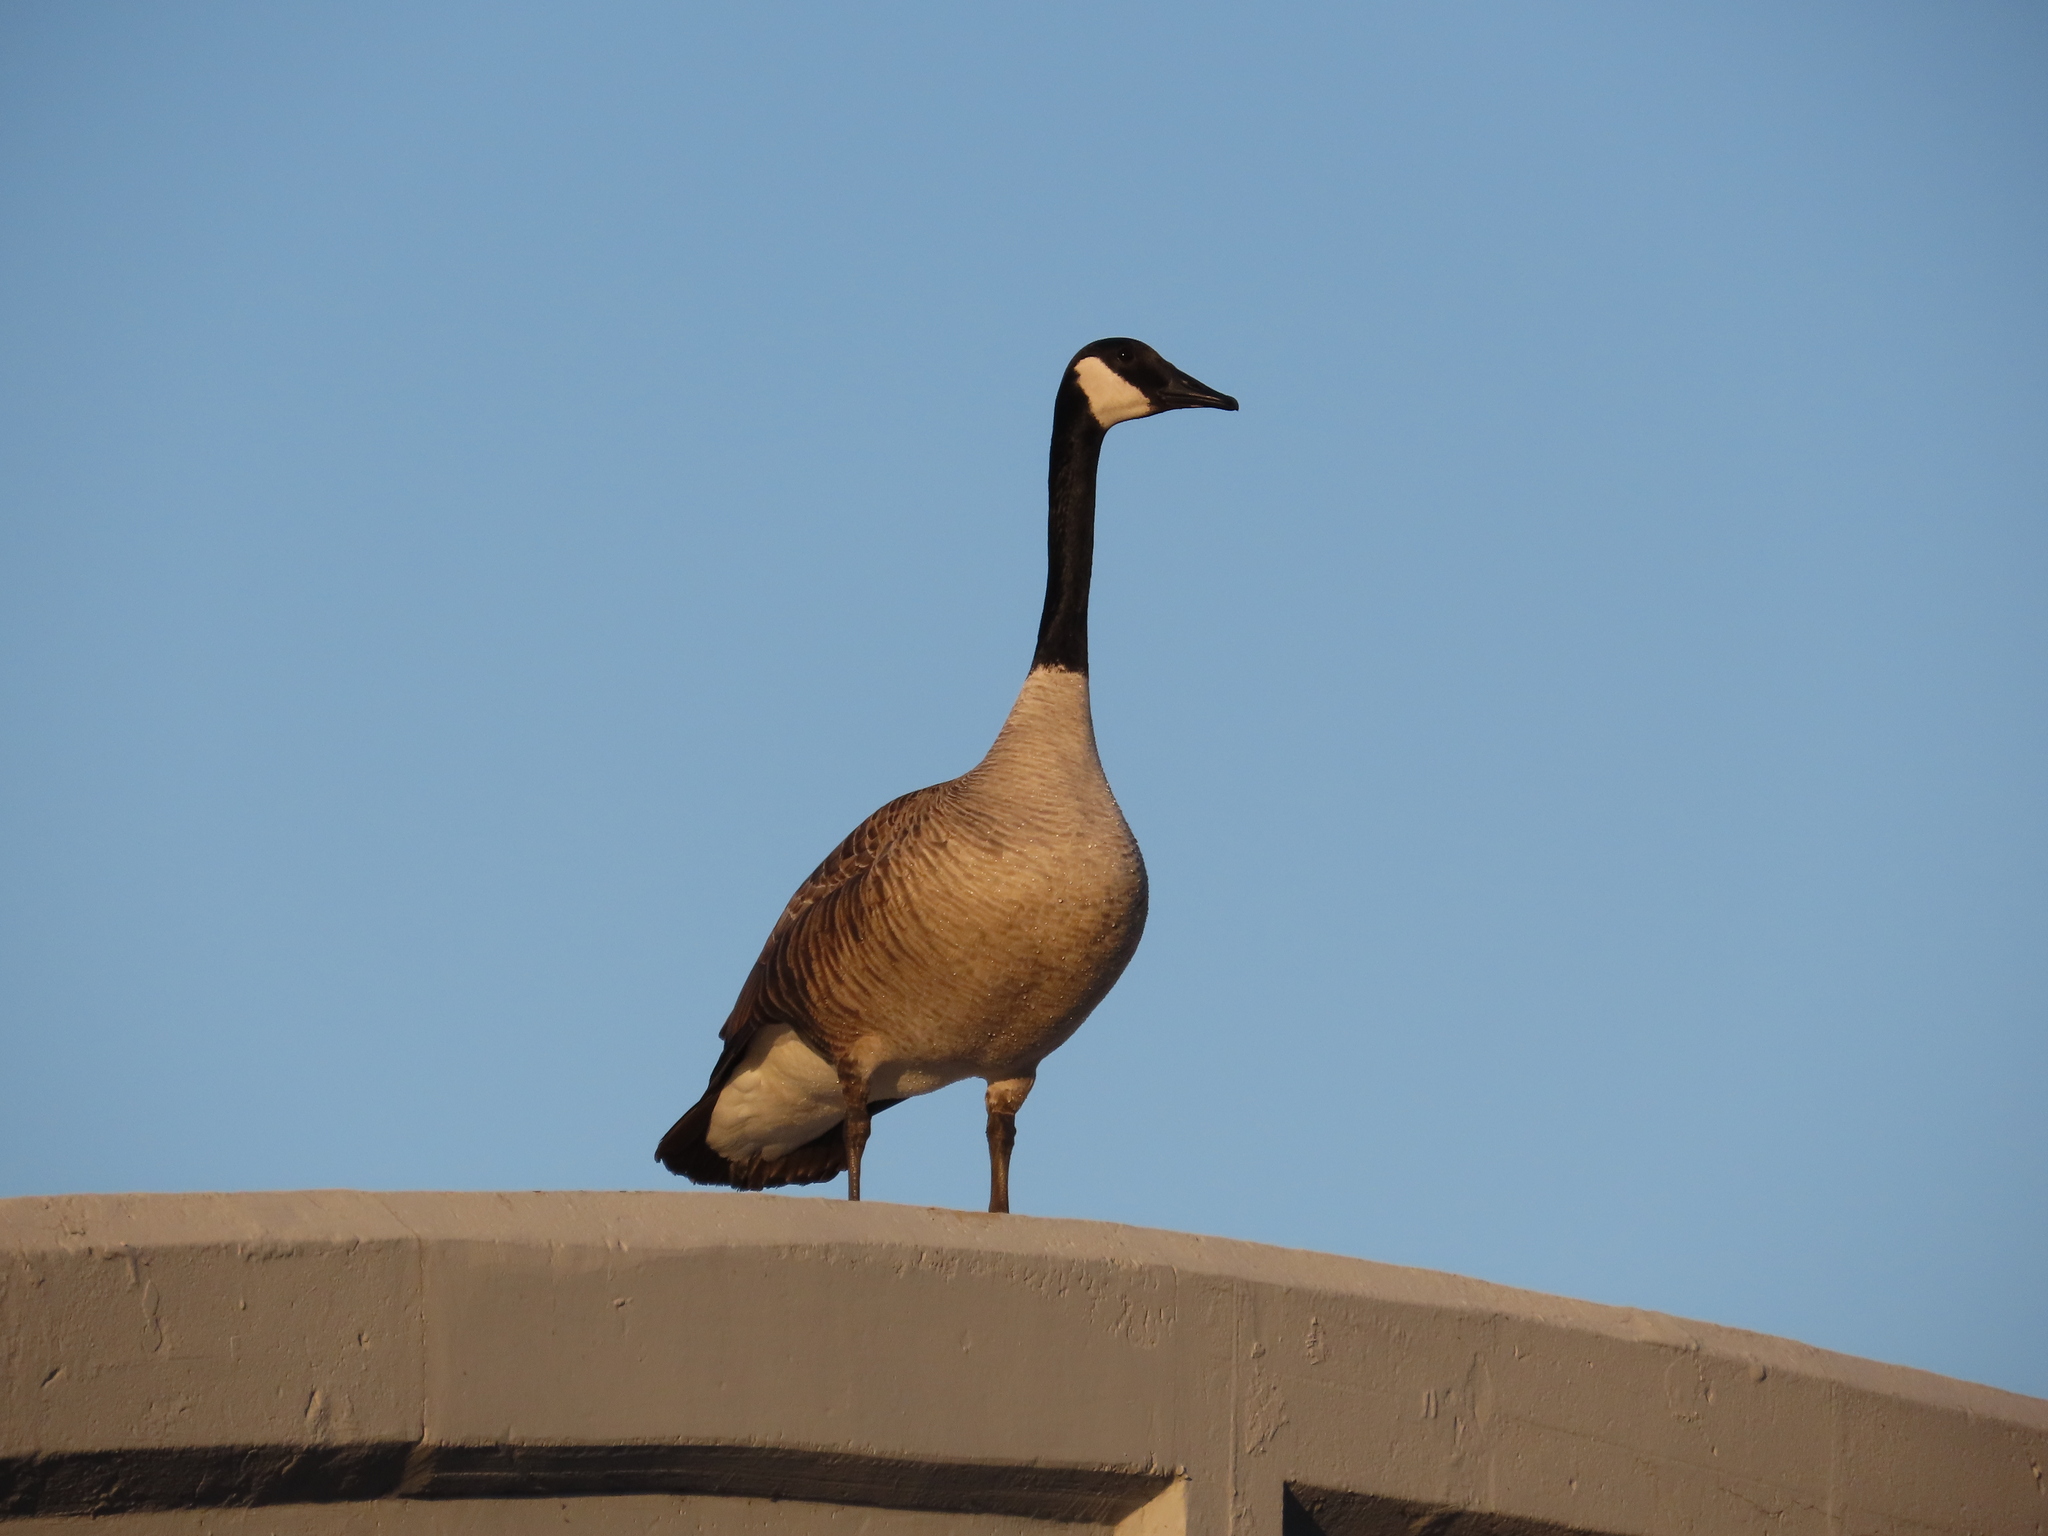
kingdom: Animalia
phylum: Chordata
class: Aves
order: Anseriformes
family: Anatidae
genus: Branta
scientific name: Branta canadensis
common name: Canada goose
